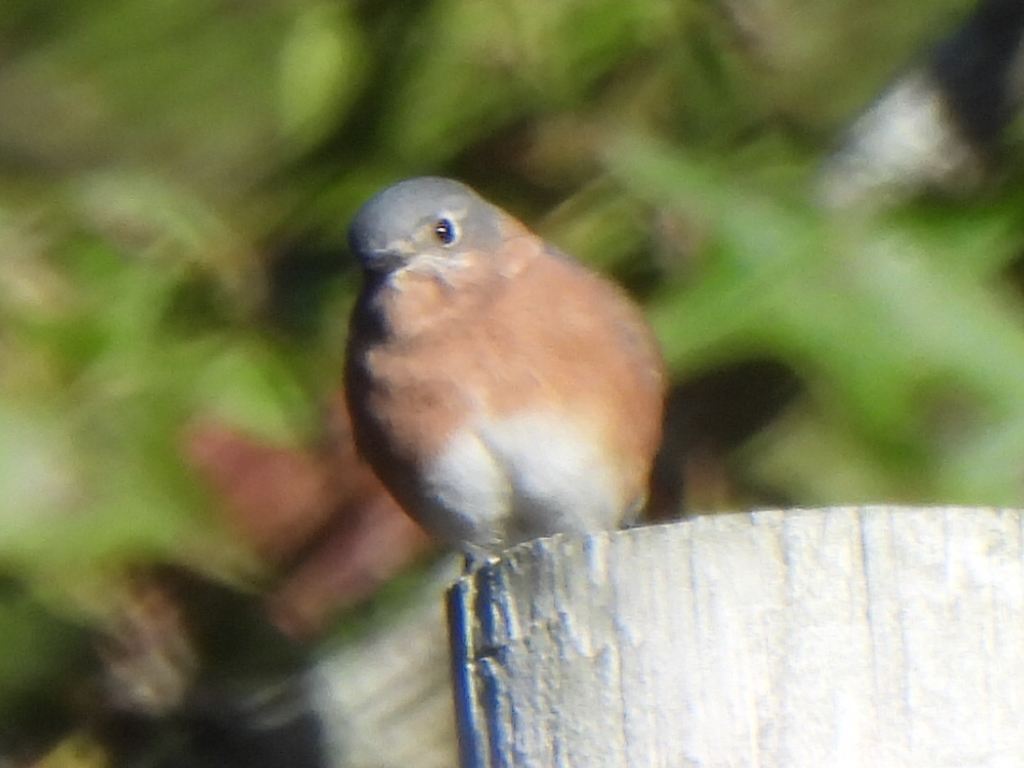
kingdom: Animalia
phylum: Chordata
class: Aves
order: Passeriformes
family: Turdidae
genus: Sialia
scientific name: Sialia sialis
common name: Eastern bluebird
